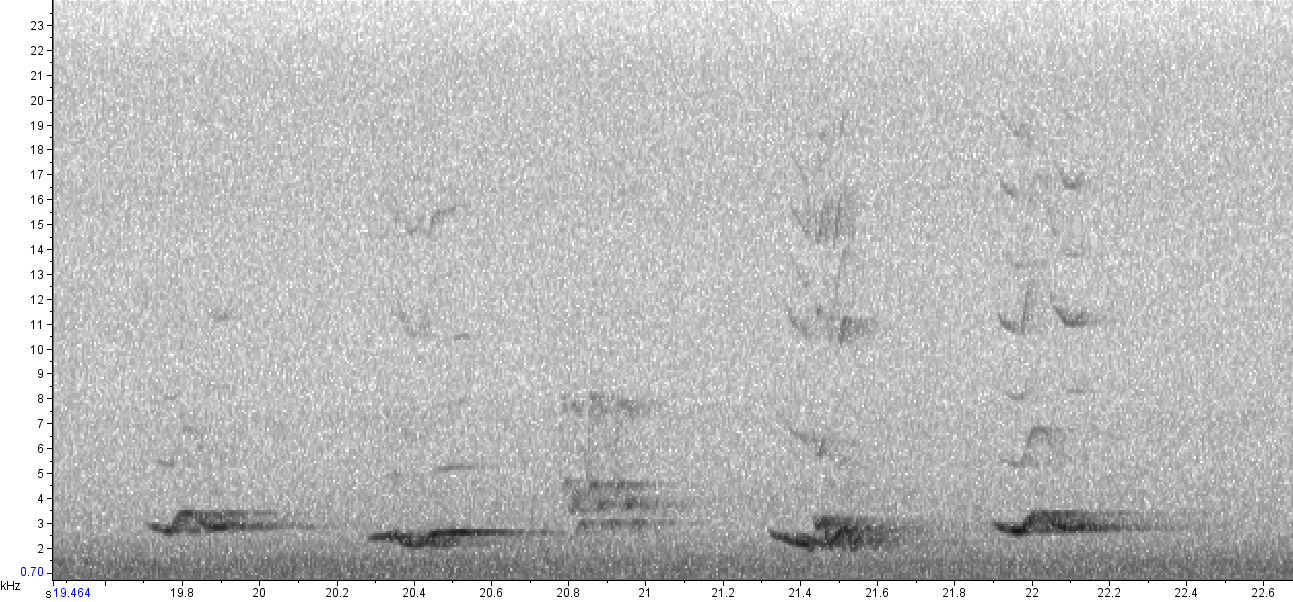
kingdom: Animalia
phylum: Chordata
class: Aves
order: Passeriformes
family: Turdidae
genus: Turdus
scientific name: Turdus migratorius
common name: American robin
